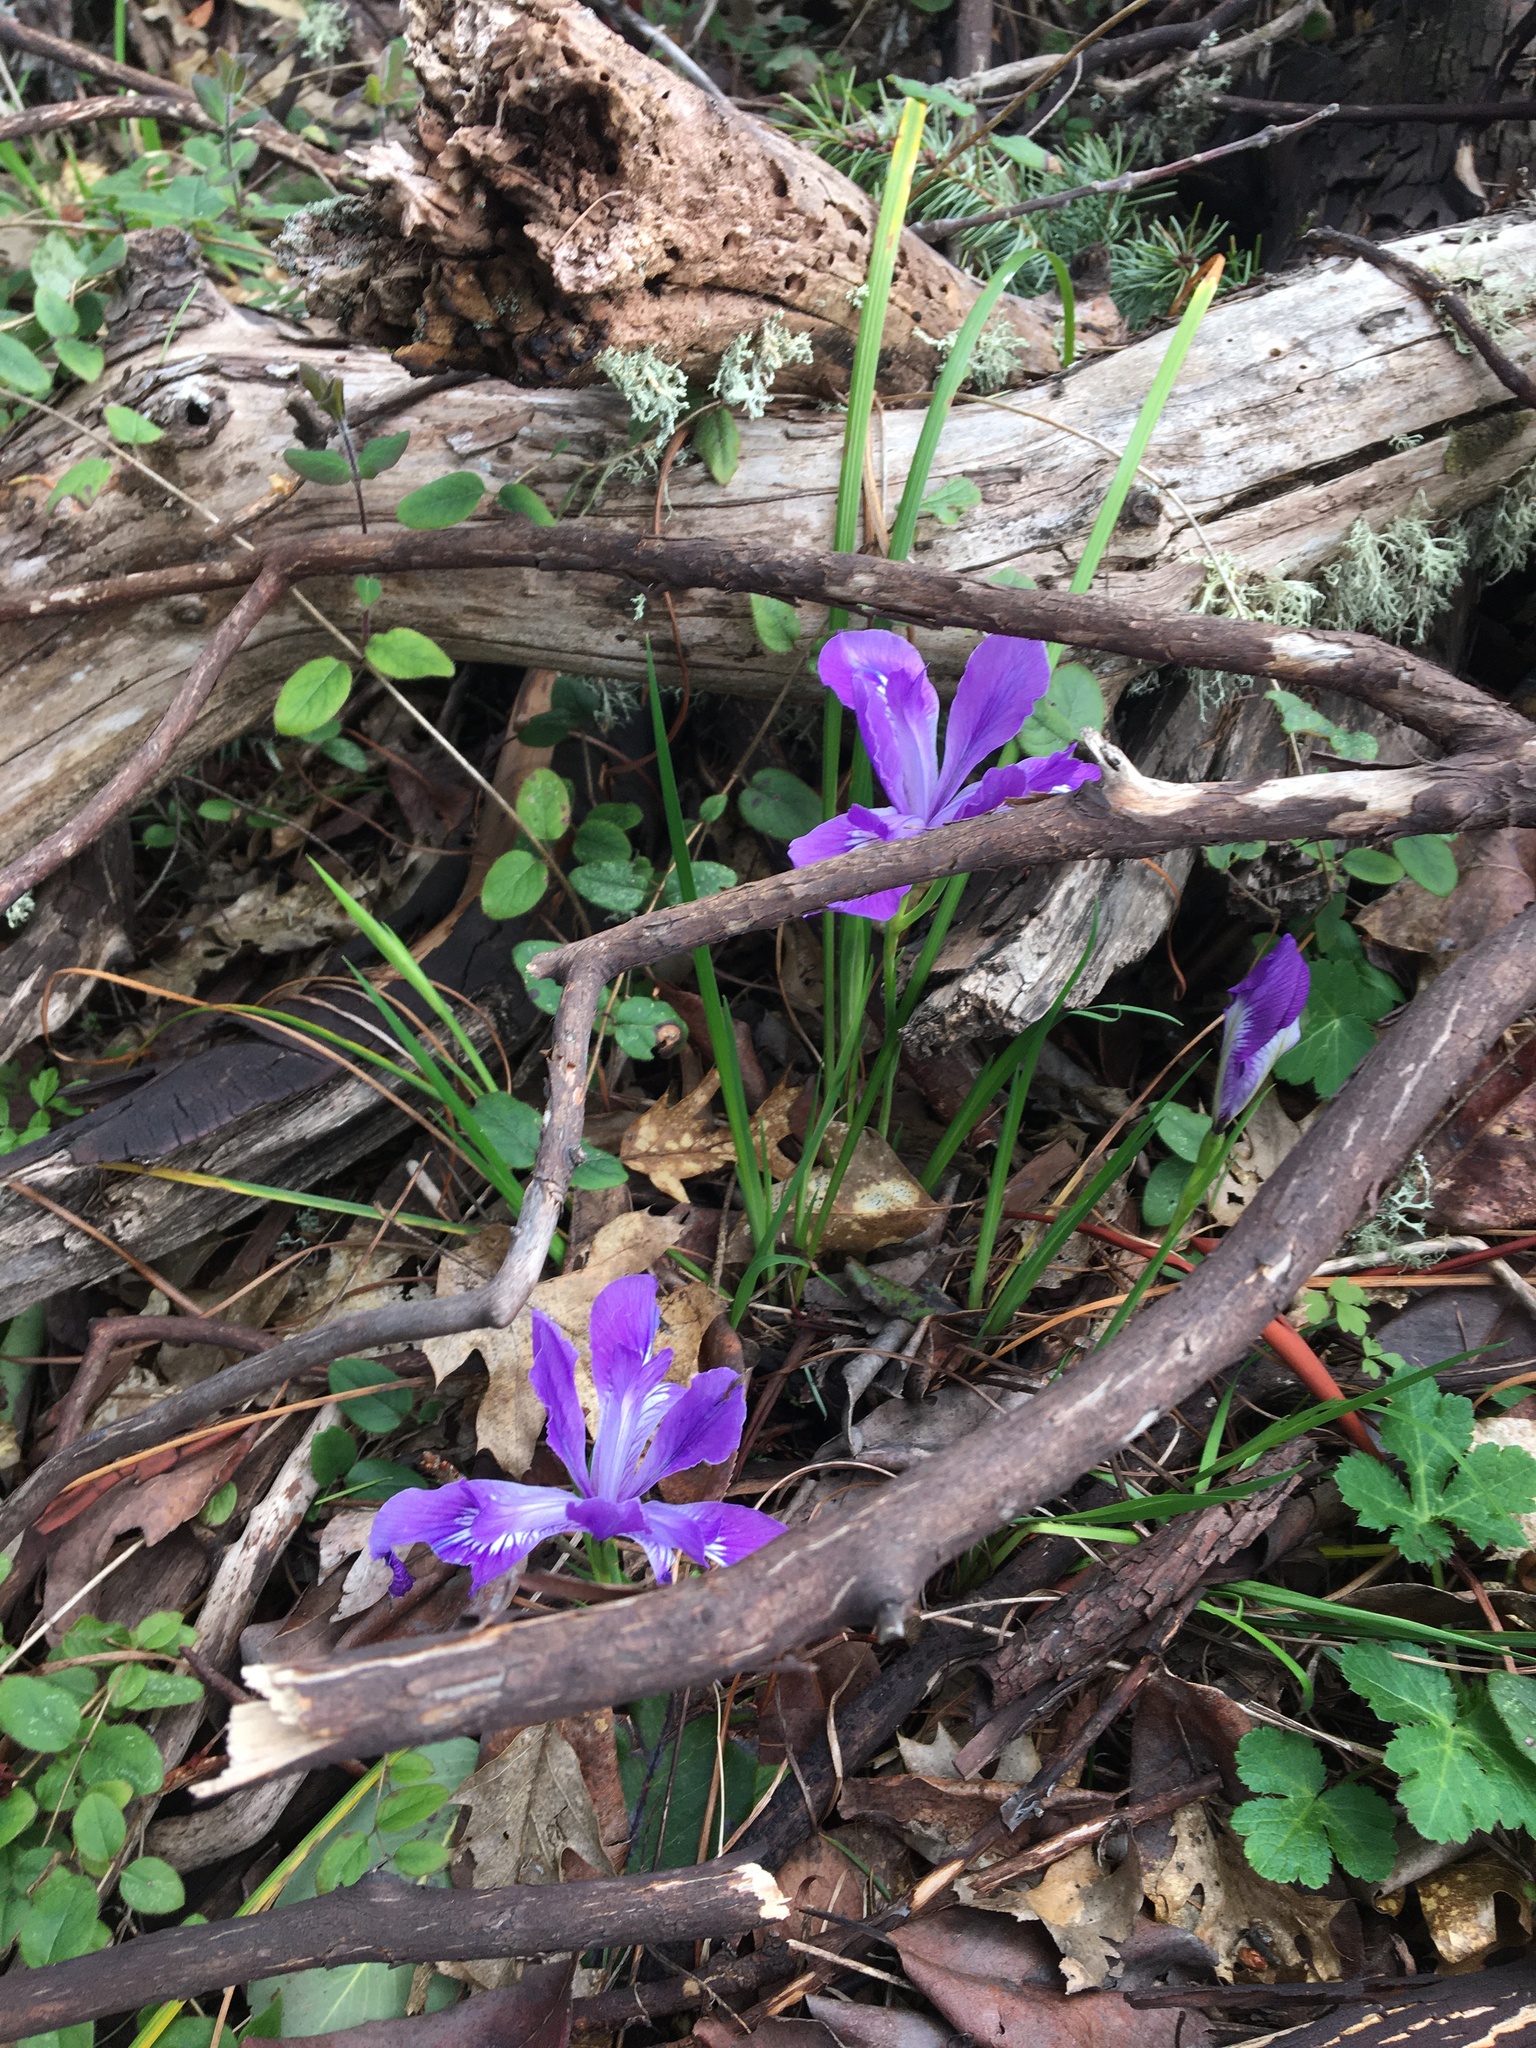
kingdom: Plantae
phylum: Tracheophyta
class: Liliopsida
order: Asparagales
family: Iridaceae
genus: Iris
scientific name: Iris tenax
